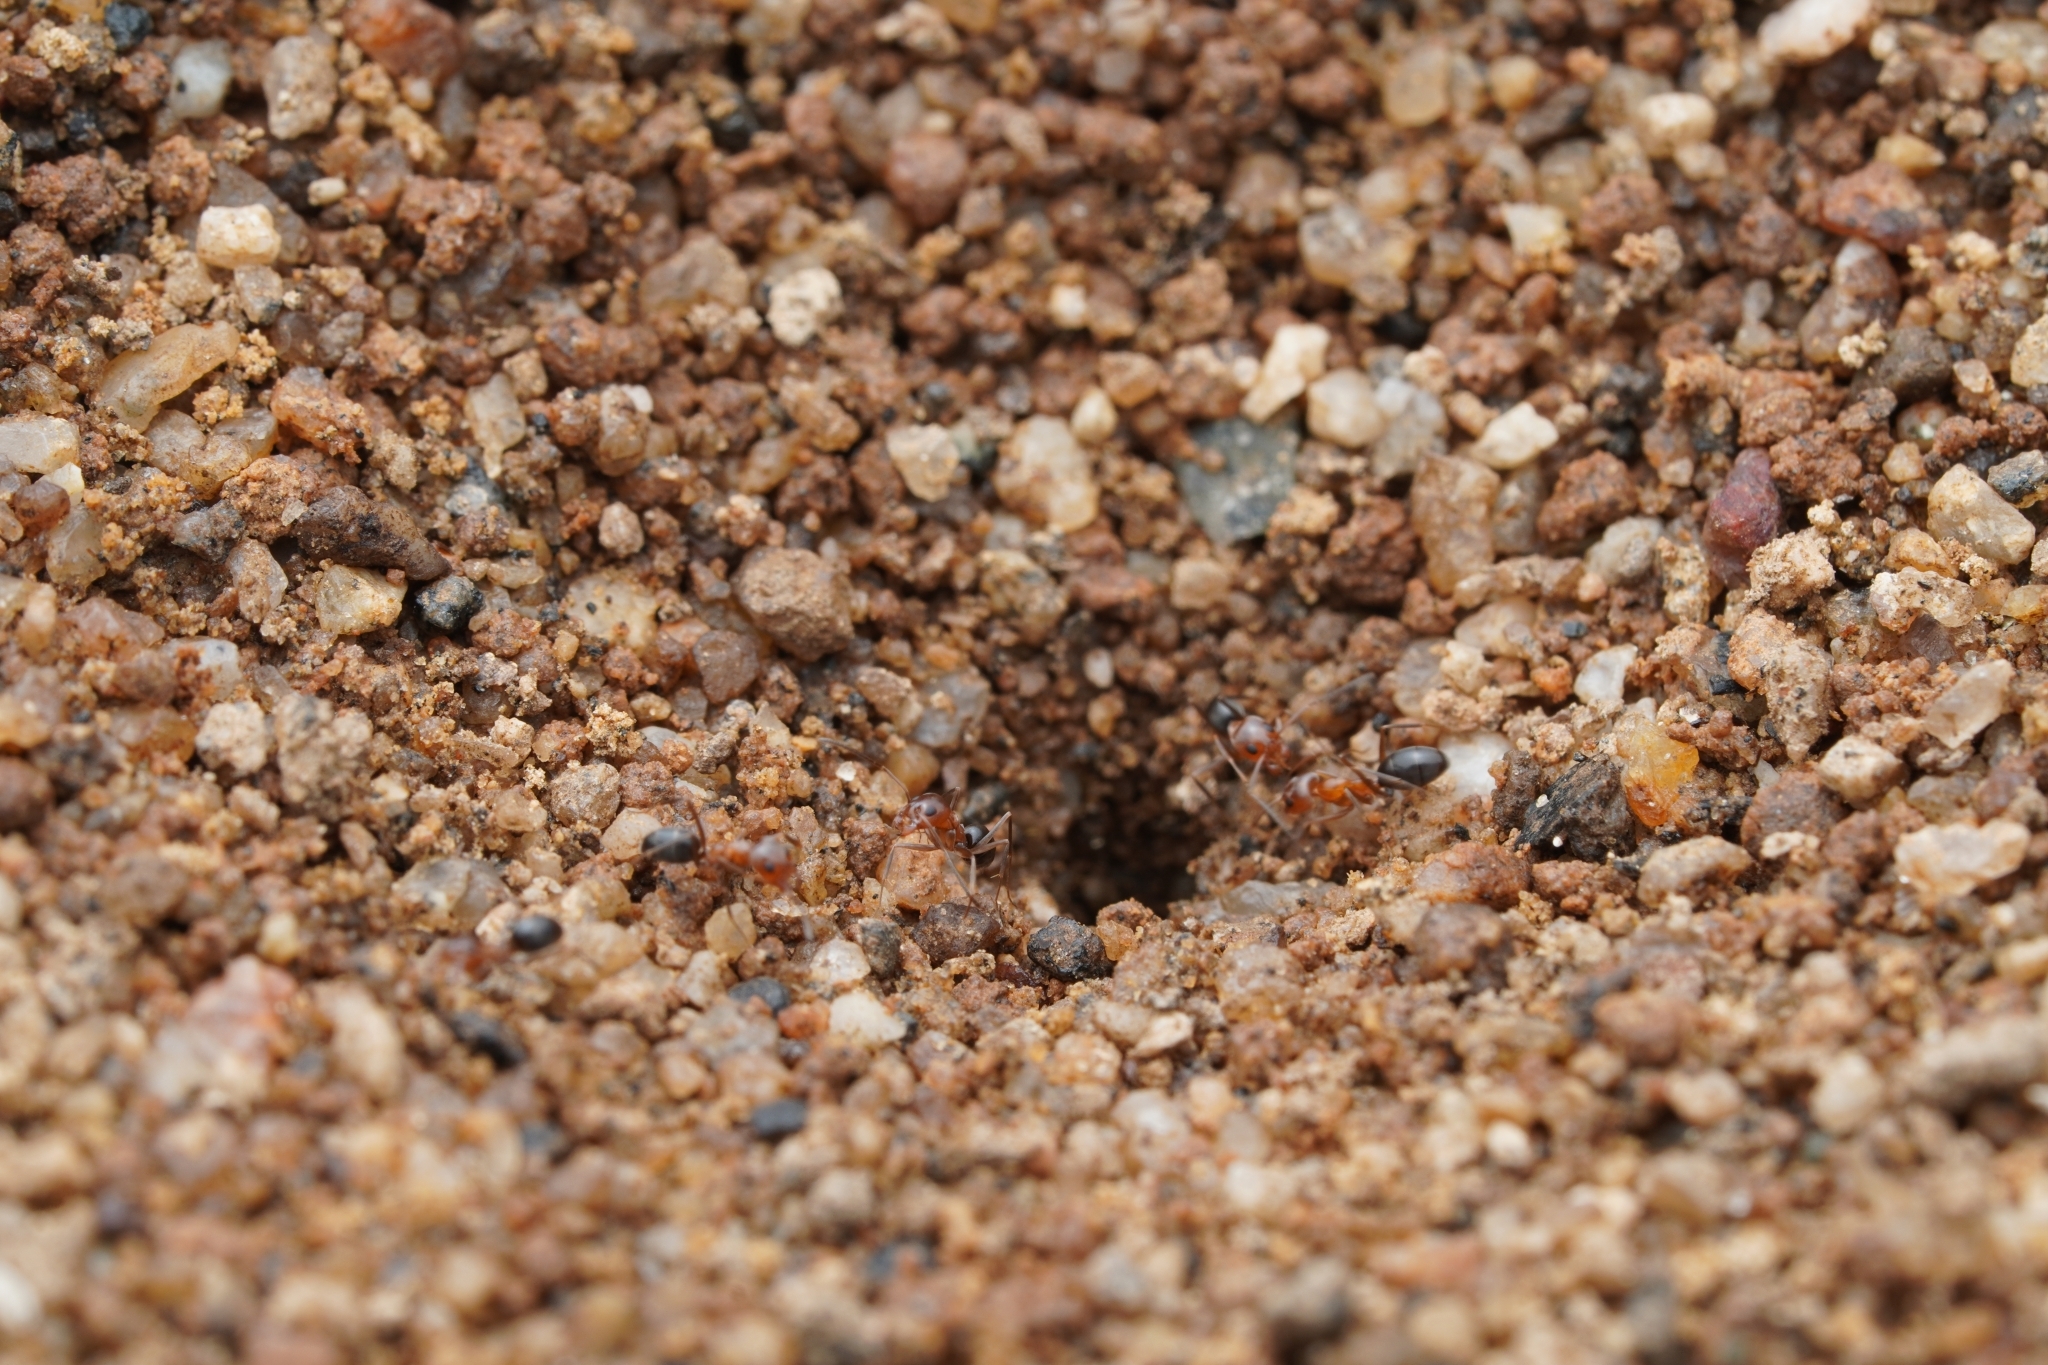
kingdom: Animalia
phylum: Arthropoda
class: Insecta
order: Hymenoptera
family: Formicidae
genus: Dorymyrmex
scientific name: Dorymyrmex bicolor
